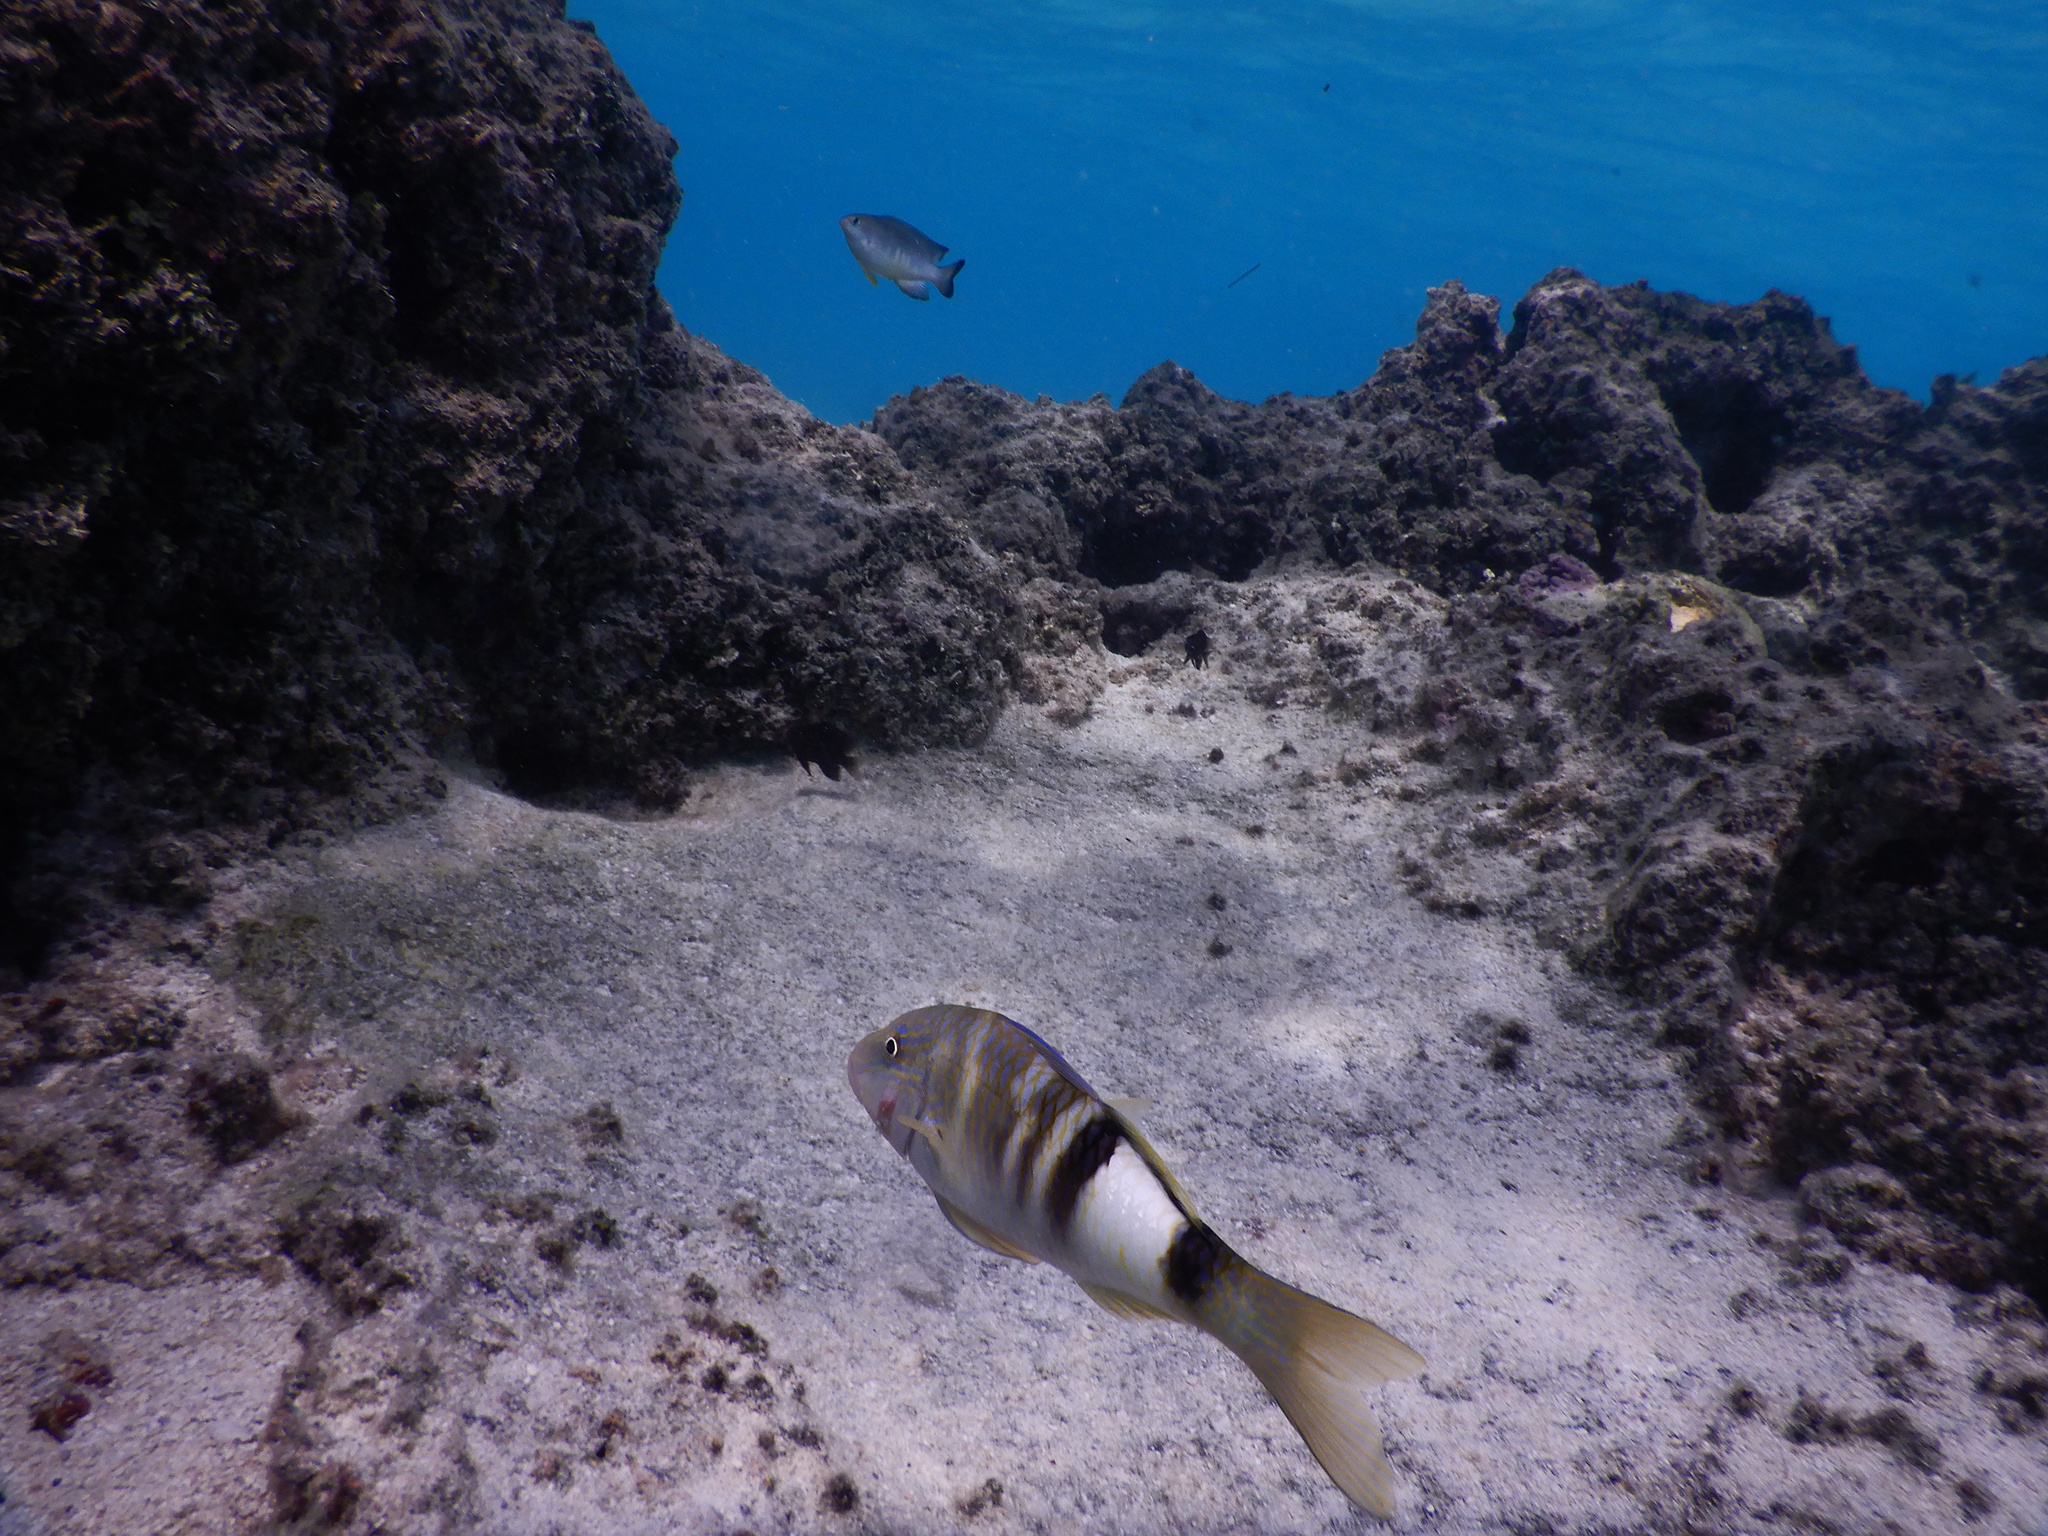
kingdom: Animalia
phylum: Chordata
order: Perciformes
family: Mullidae
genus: Parupeneus
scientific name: Parupeneus multifasciatus
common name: Manybar goatfish
